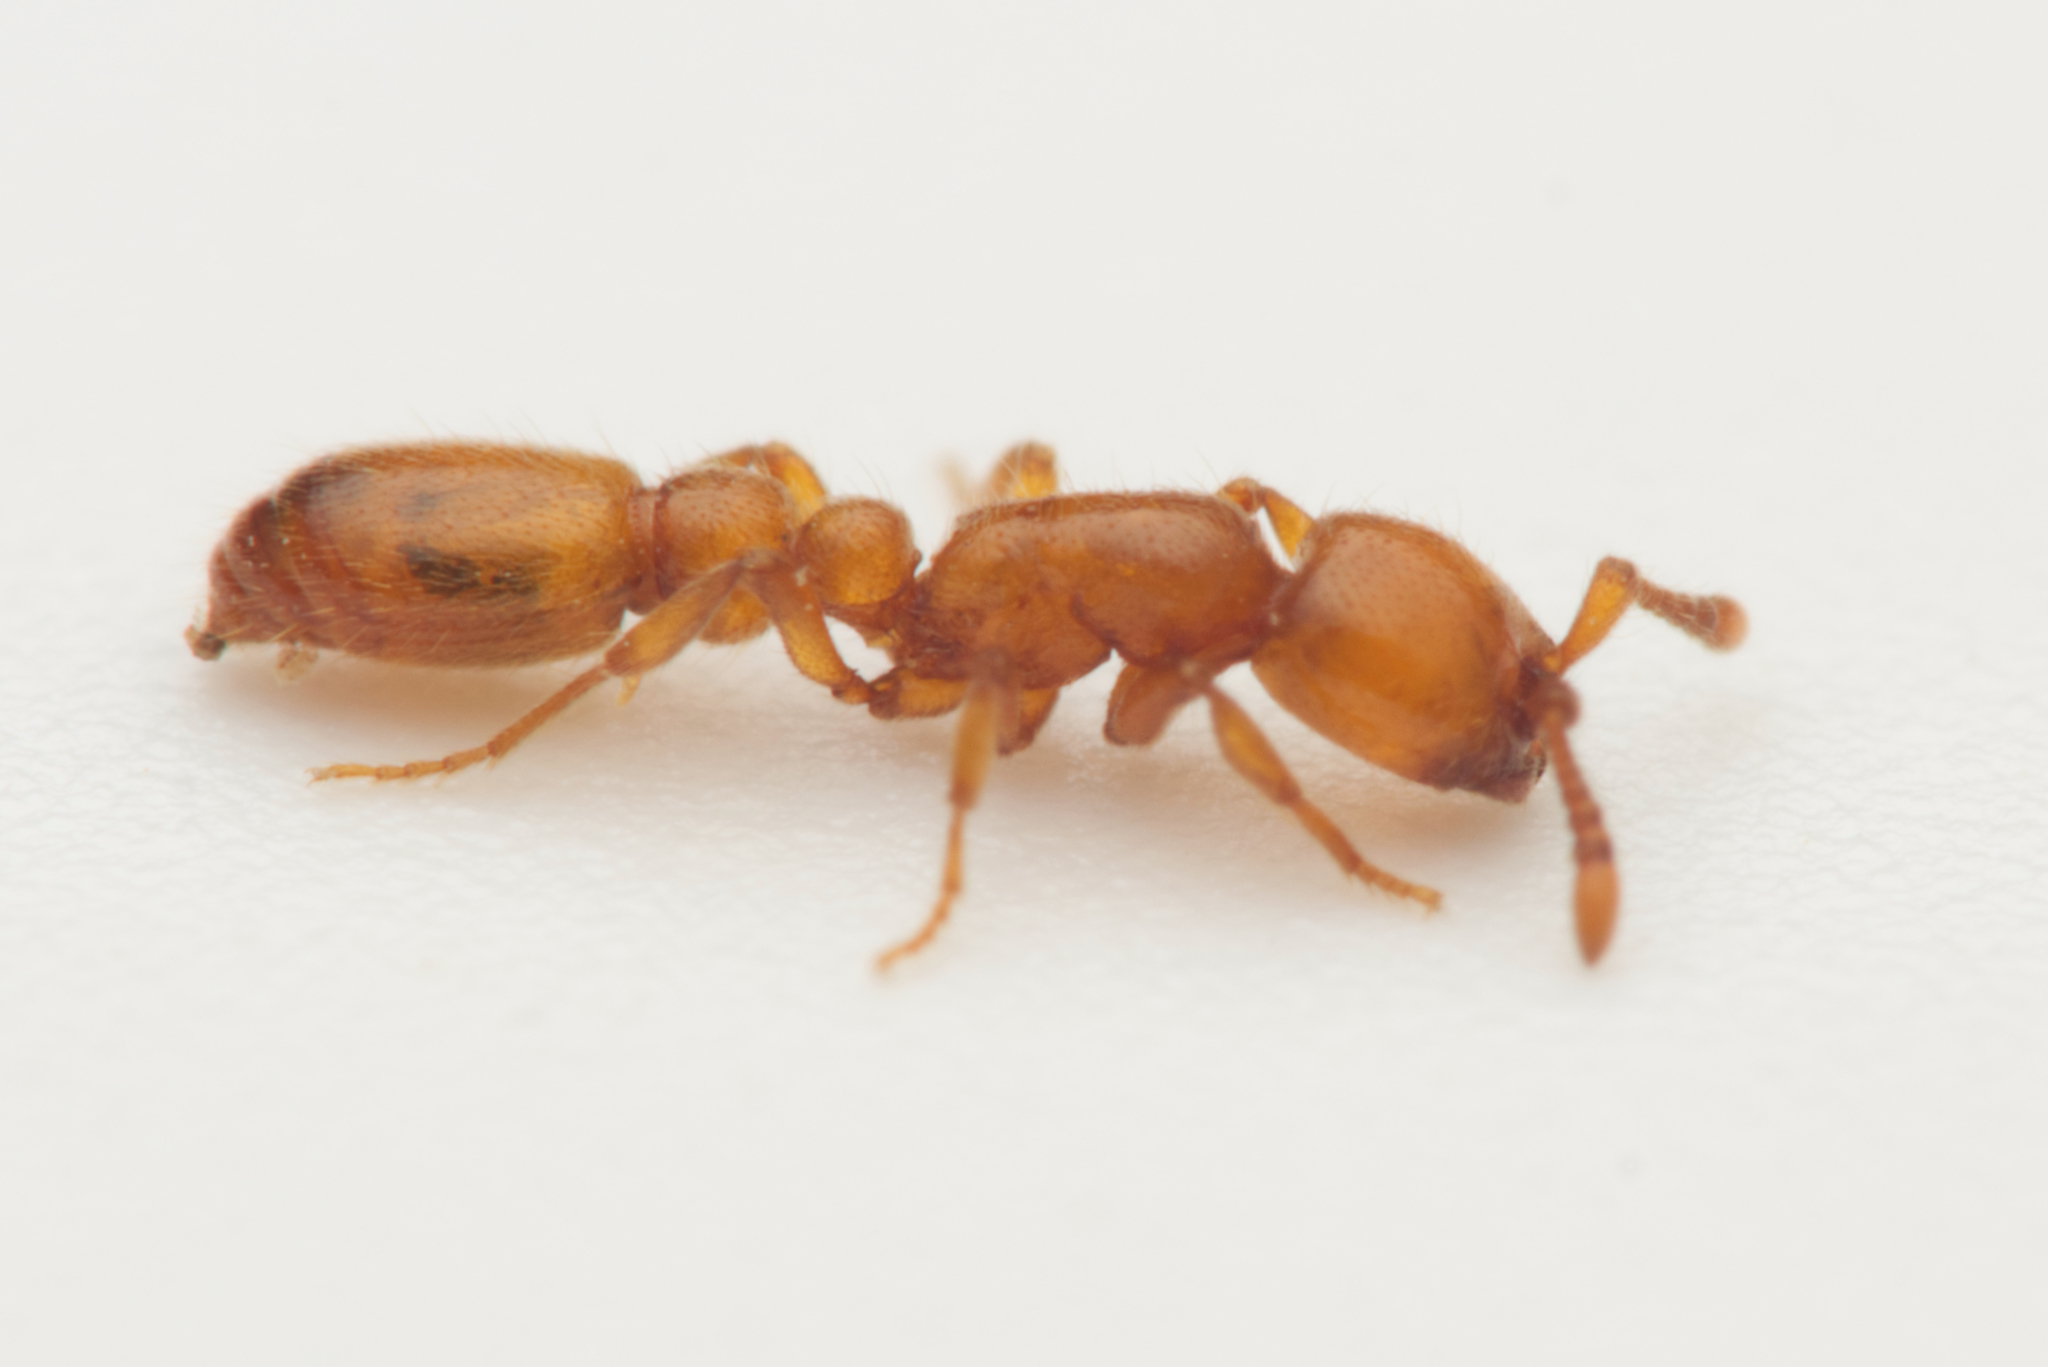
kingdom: Animalia
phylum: Arthropoda
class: Insecta
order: Hymenoptera
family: Formicidae
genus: Ooceraea
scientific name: Ooceraea
